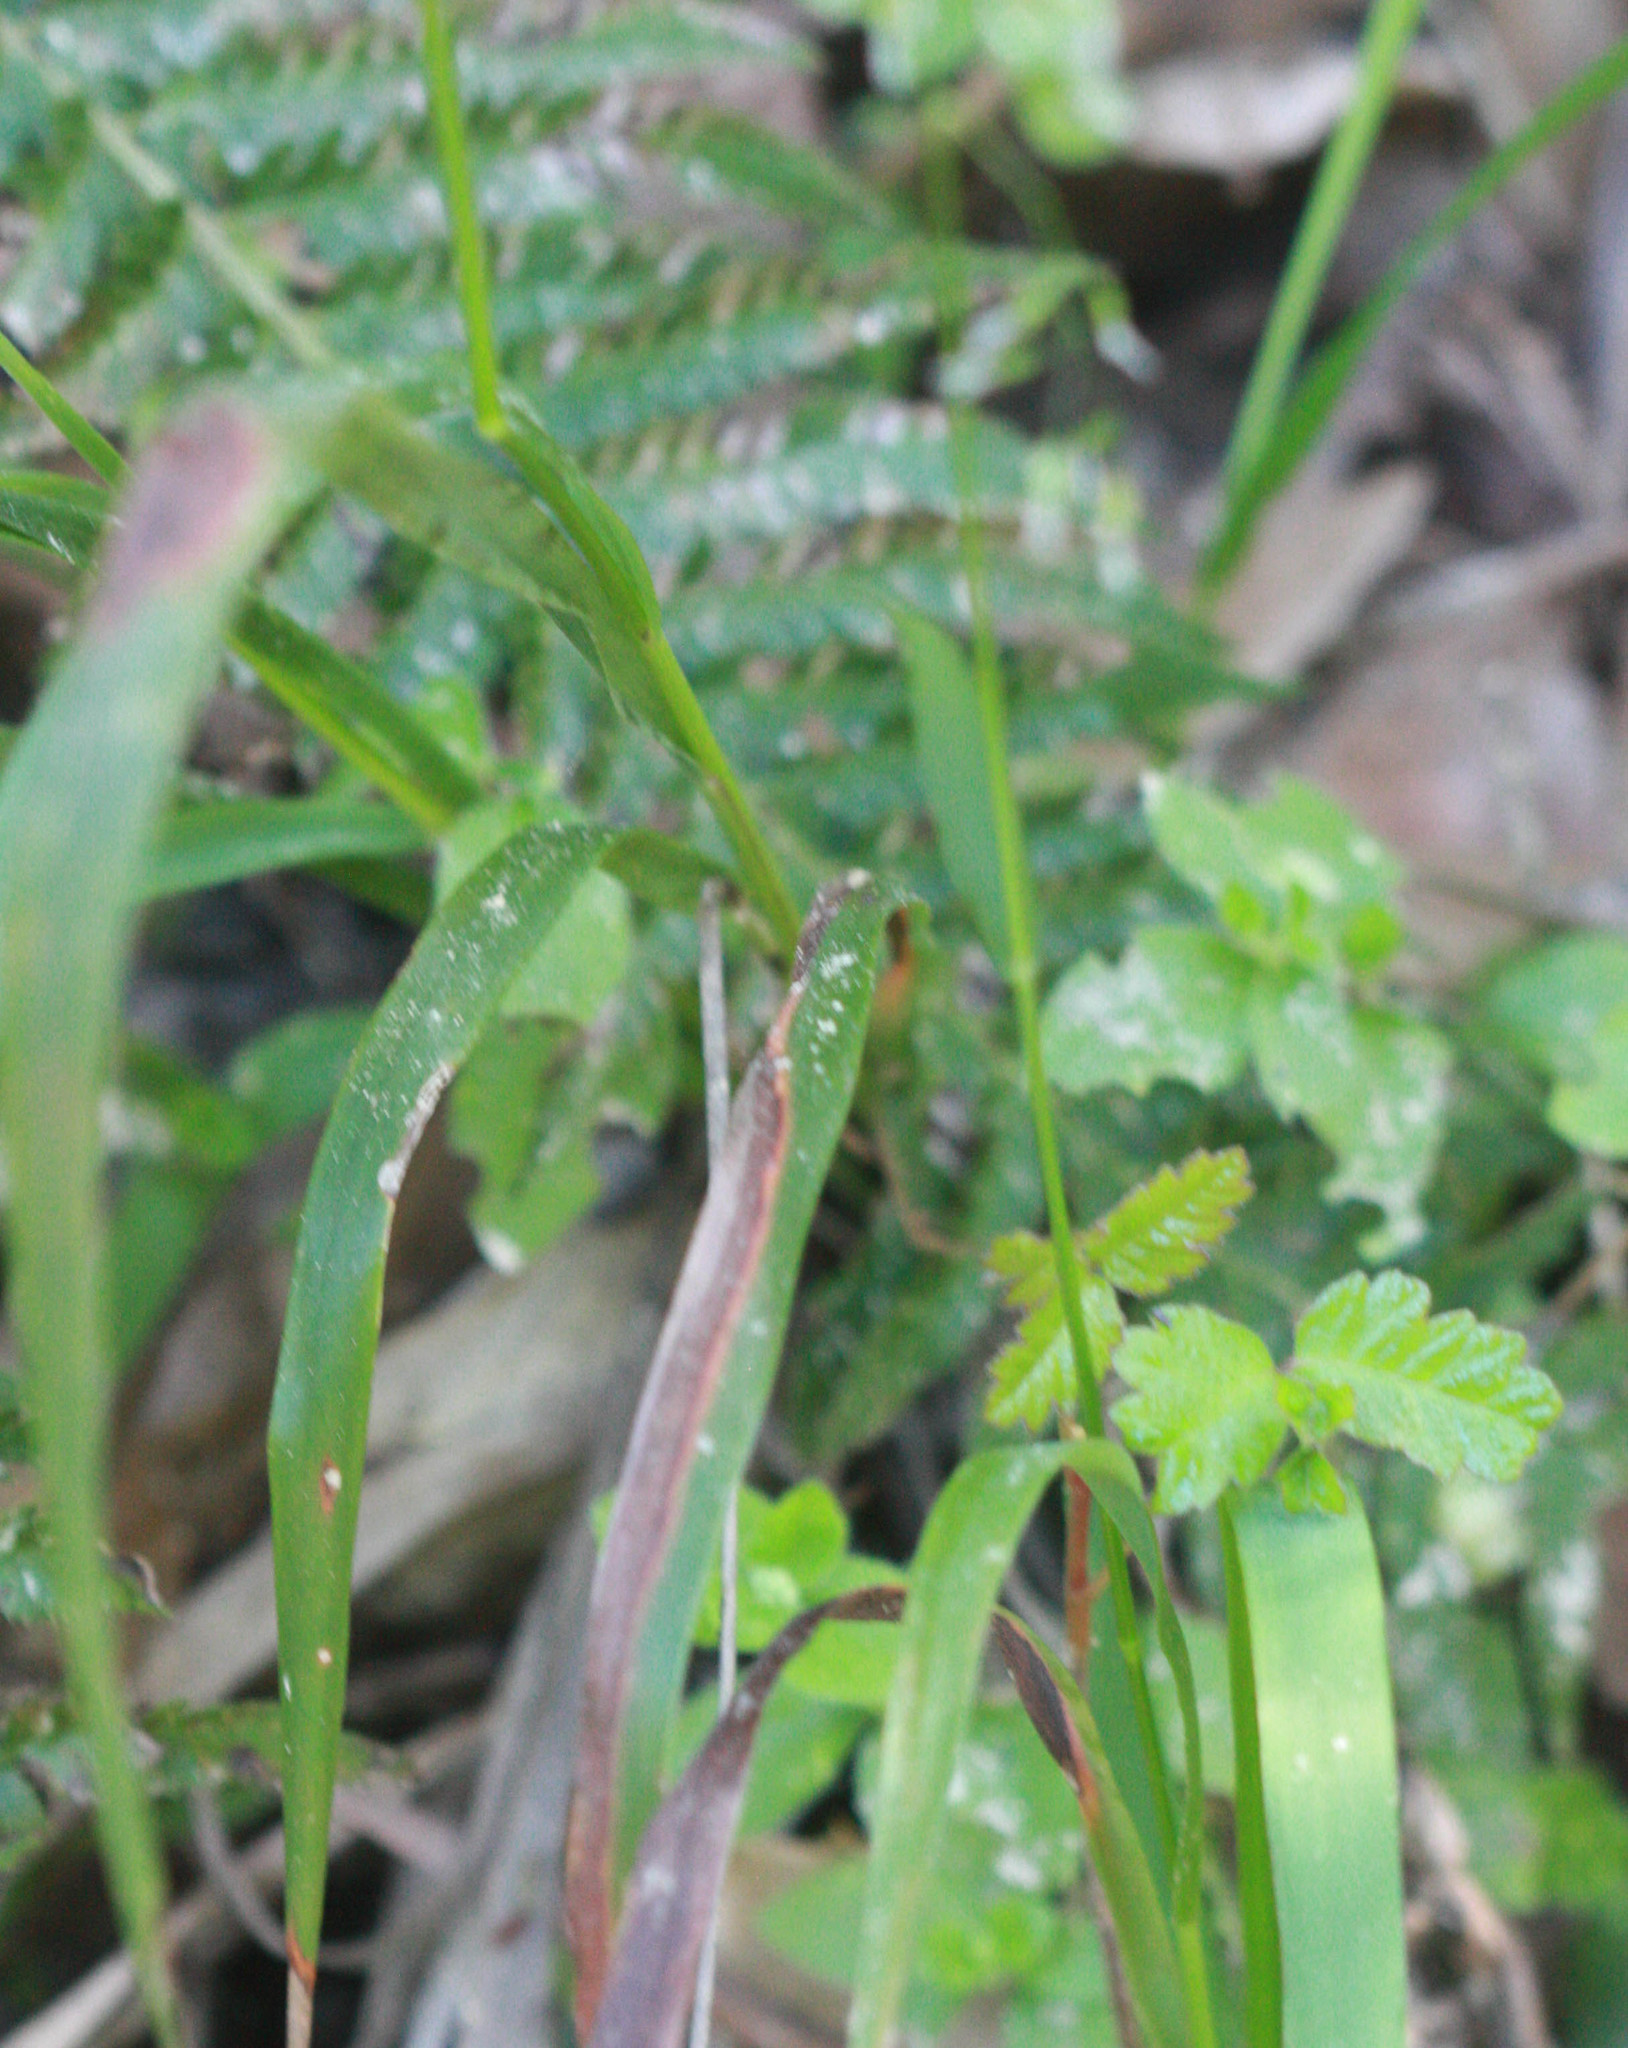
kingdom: Plantae
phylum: Tracheophyta
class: Liliopsida
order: Poales
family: Poaceae
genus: Anthoxanthum
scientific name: Anthoxanthum occidentale
